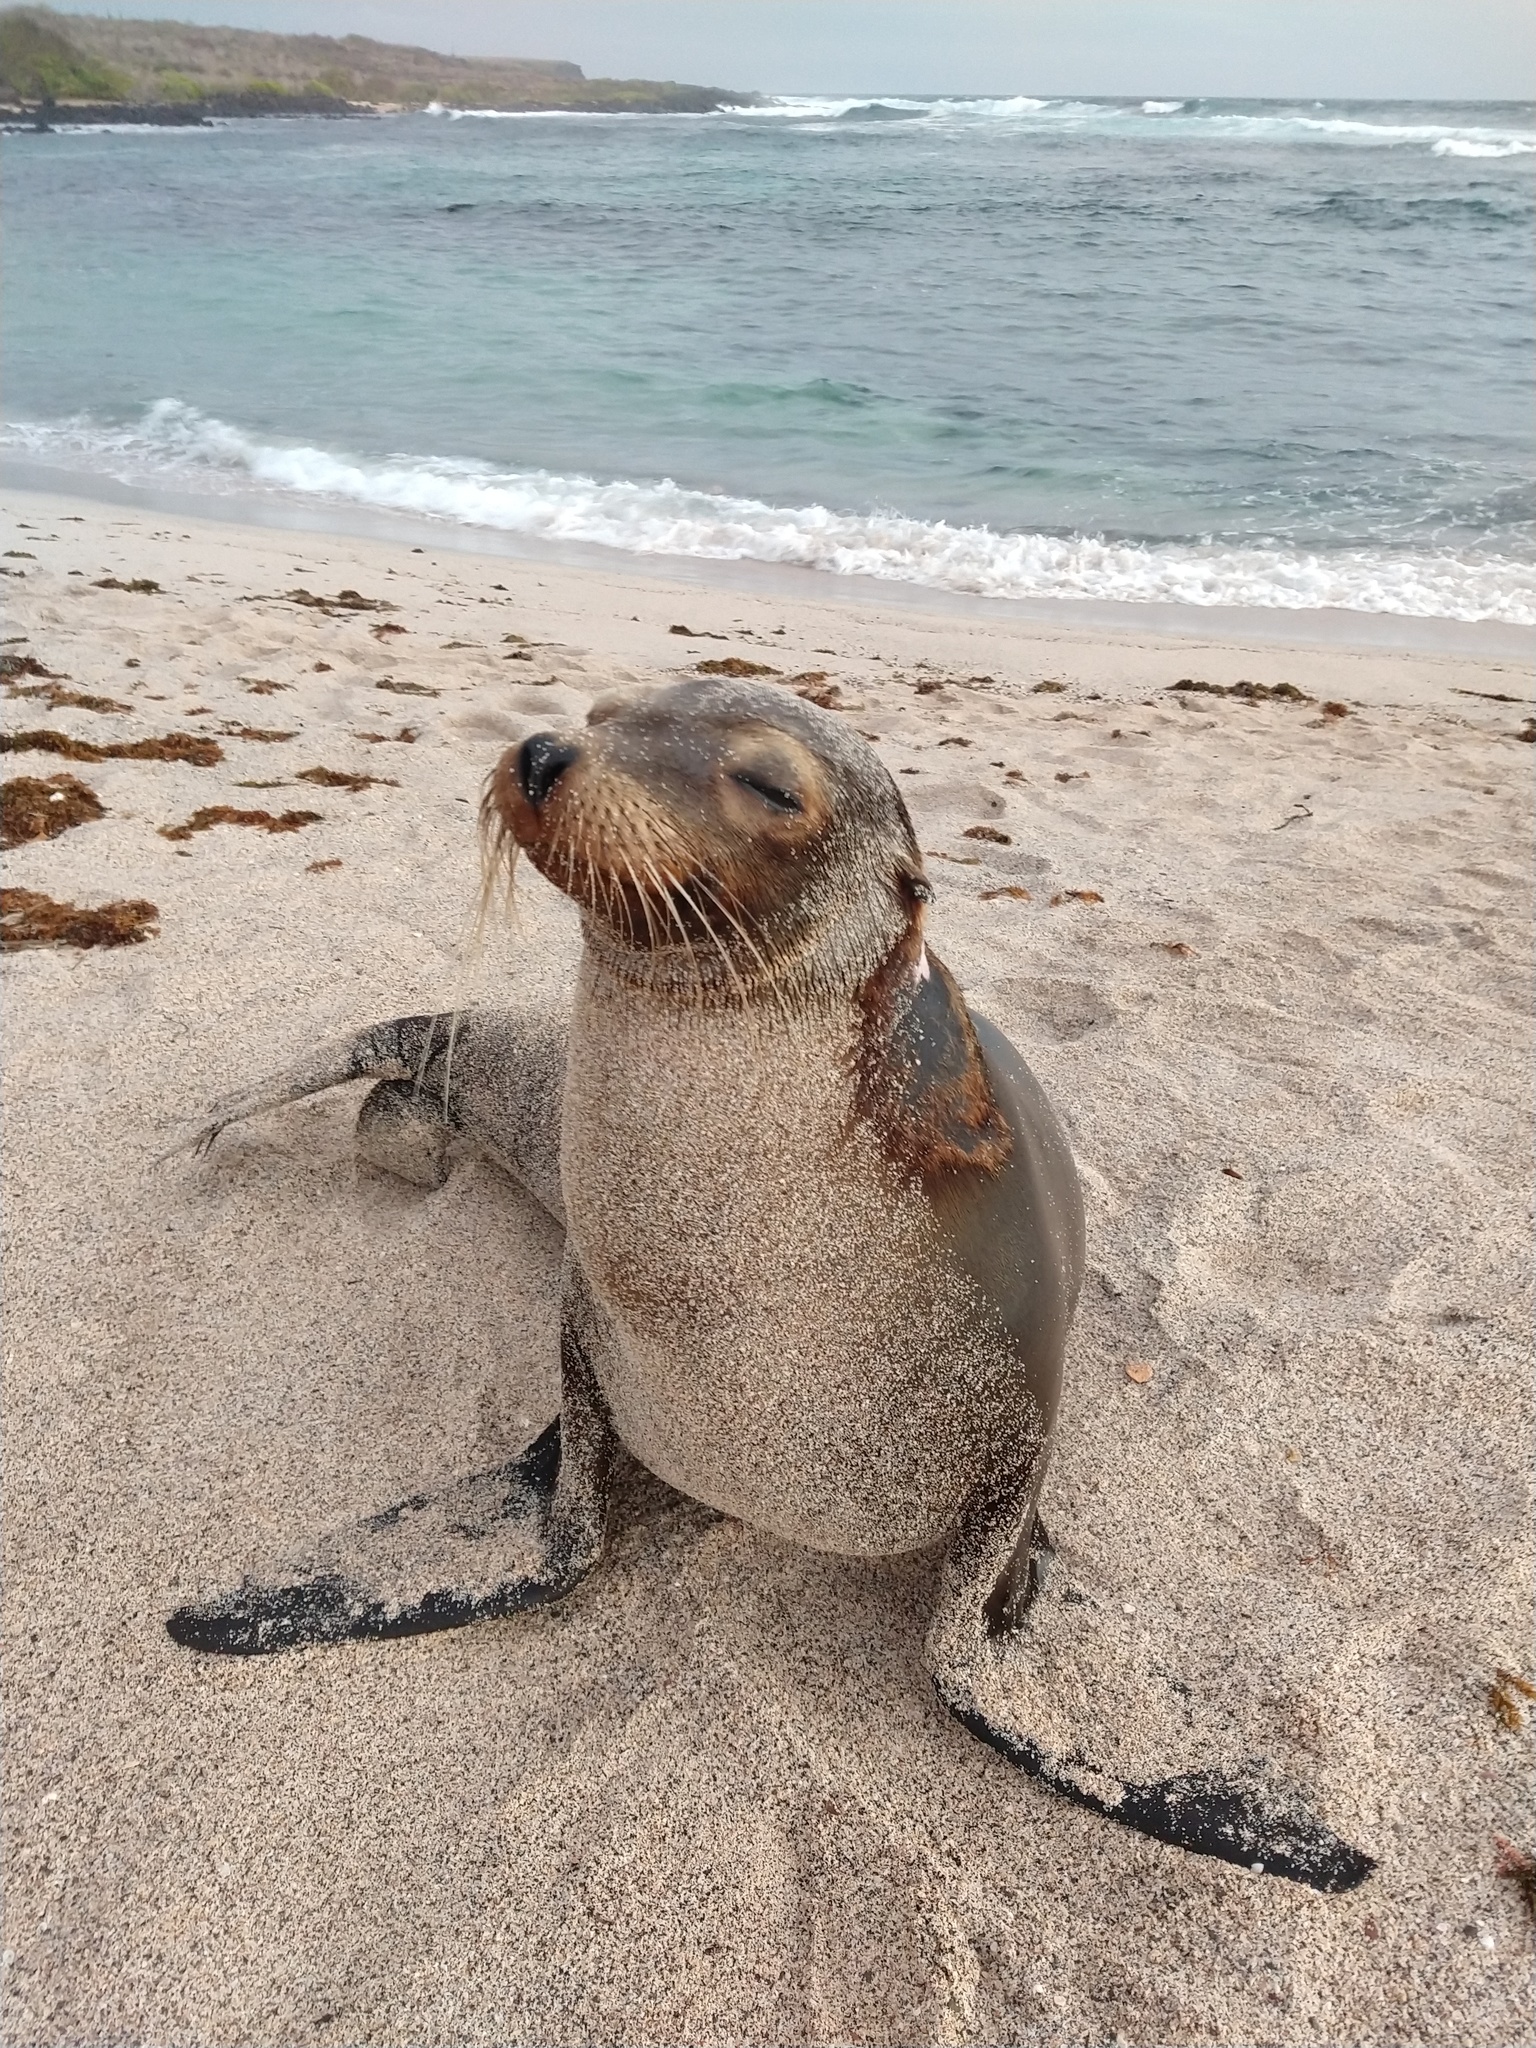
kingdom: Animalia
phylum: Chordata
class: Mammalia
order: Carnivora
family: Otariidae
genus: Zalophus
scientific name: Zalophus wollebaeki
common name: Galapagos sea lion
